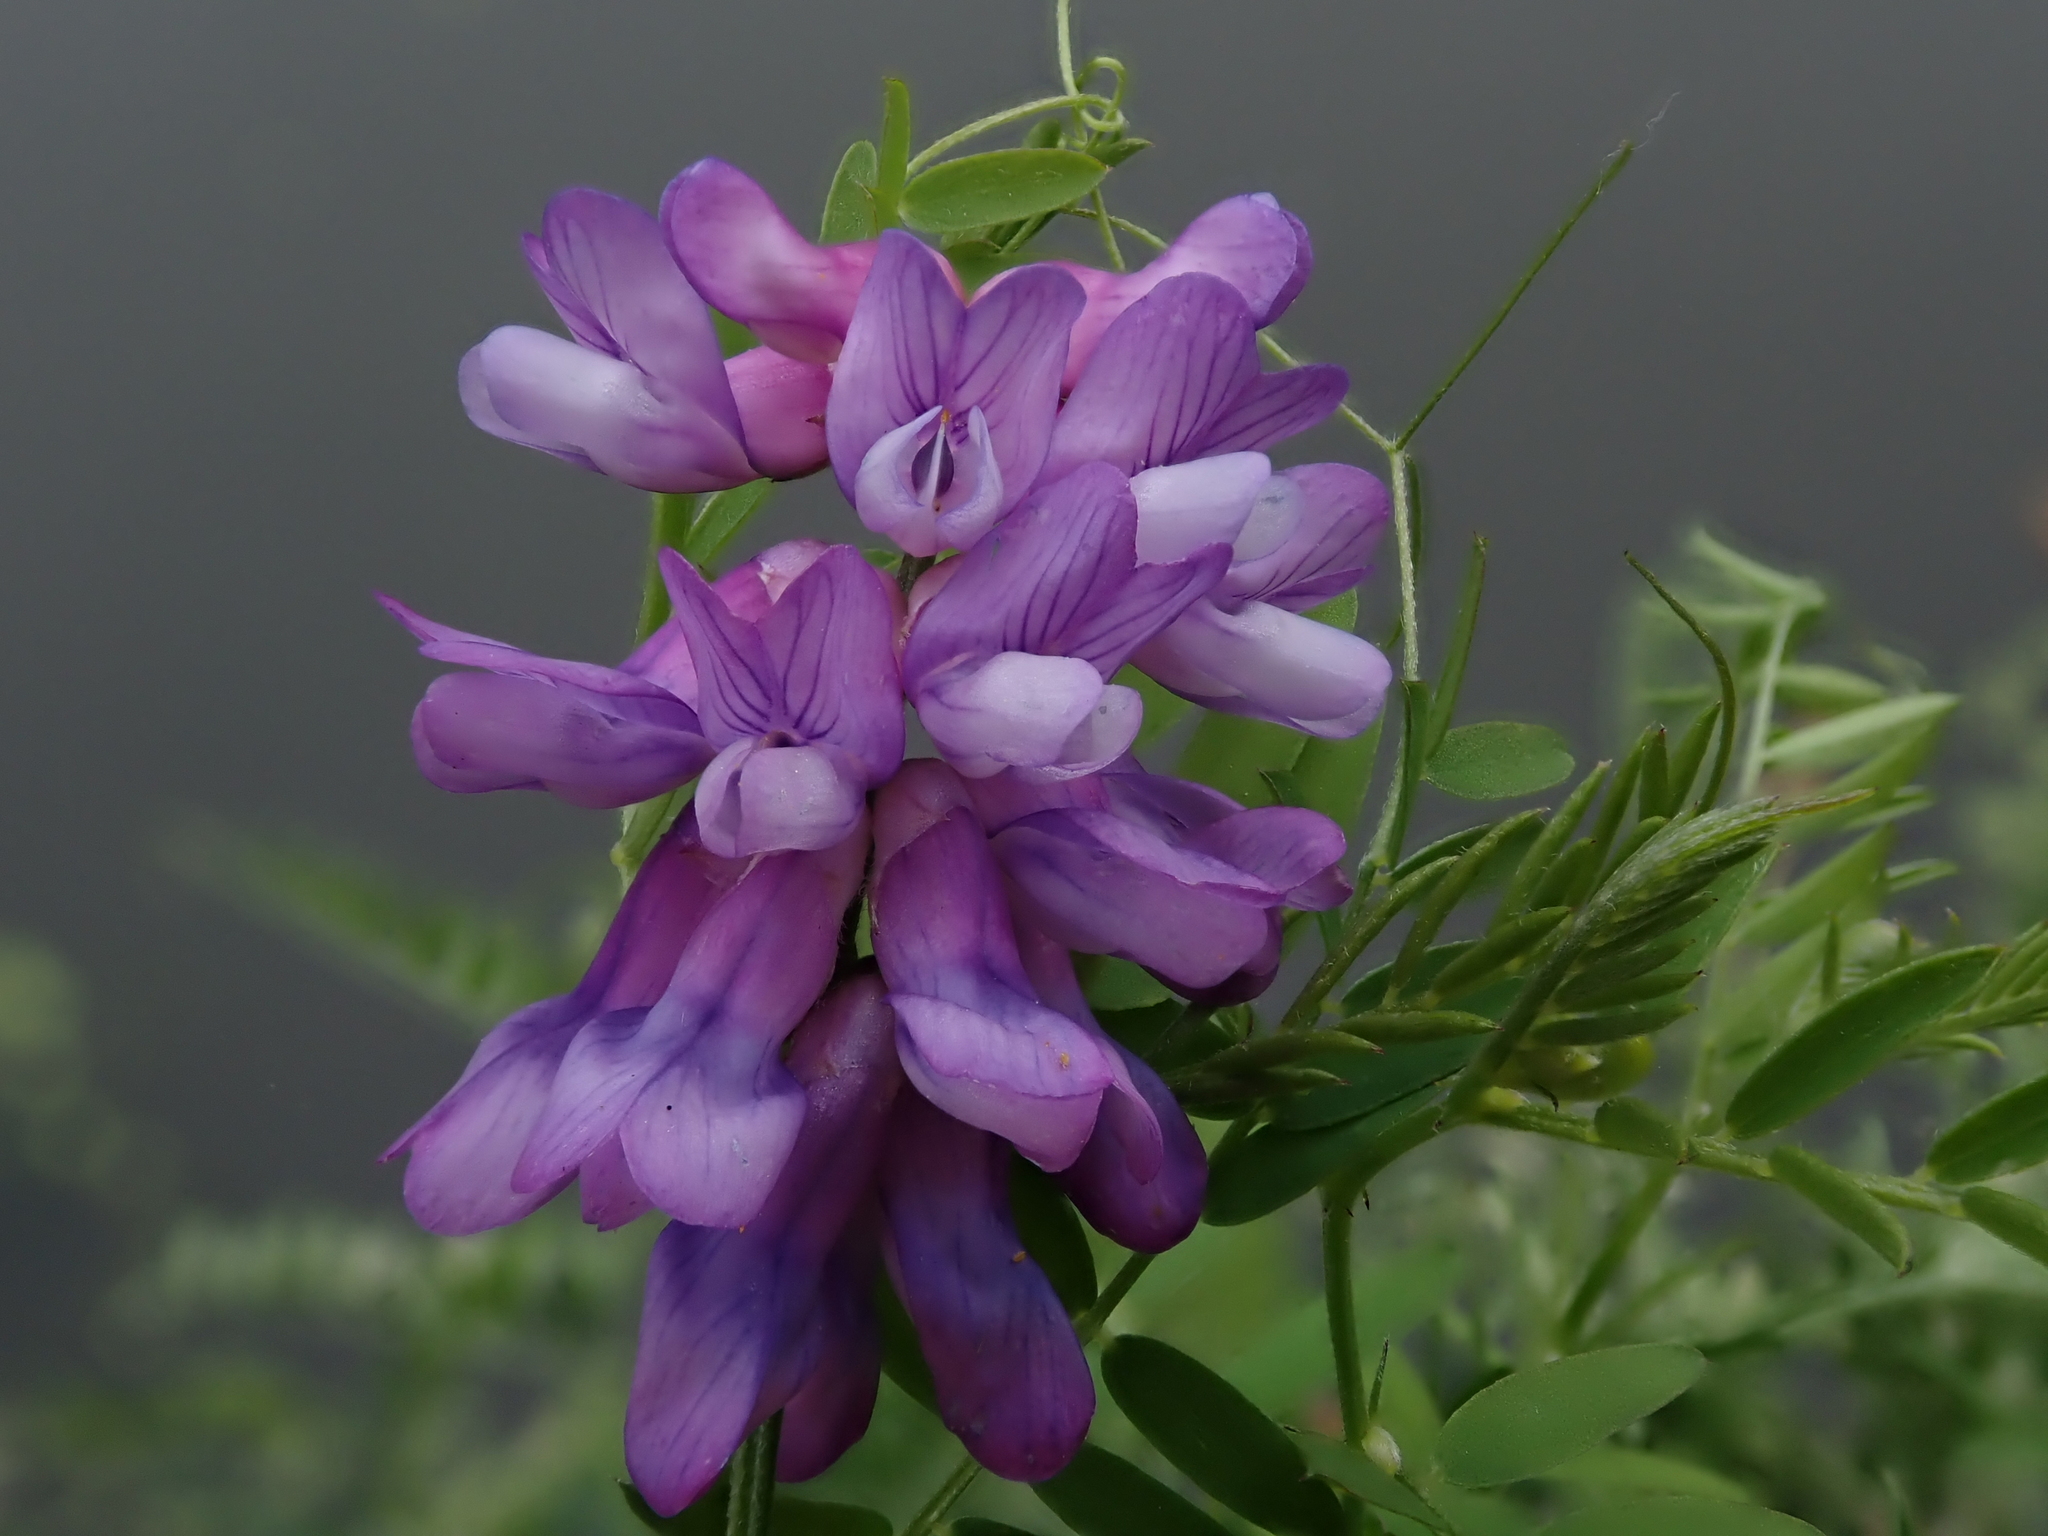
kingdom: Plantae
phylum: Tracheophyta
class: Magnoliopsida
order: Fabales
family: Fabaceae
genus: Vicia
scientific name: Vicia cracca
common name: Bird vetch
